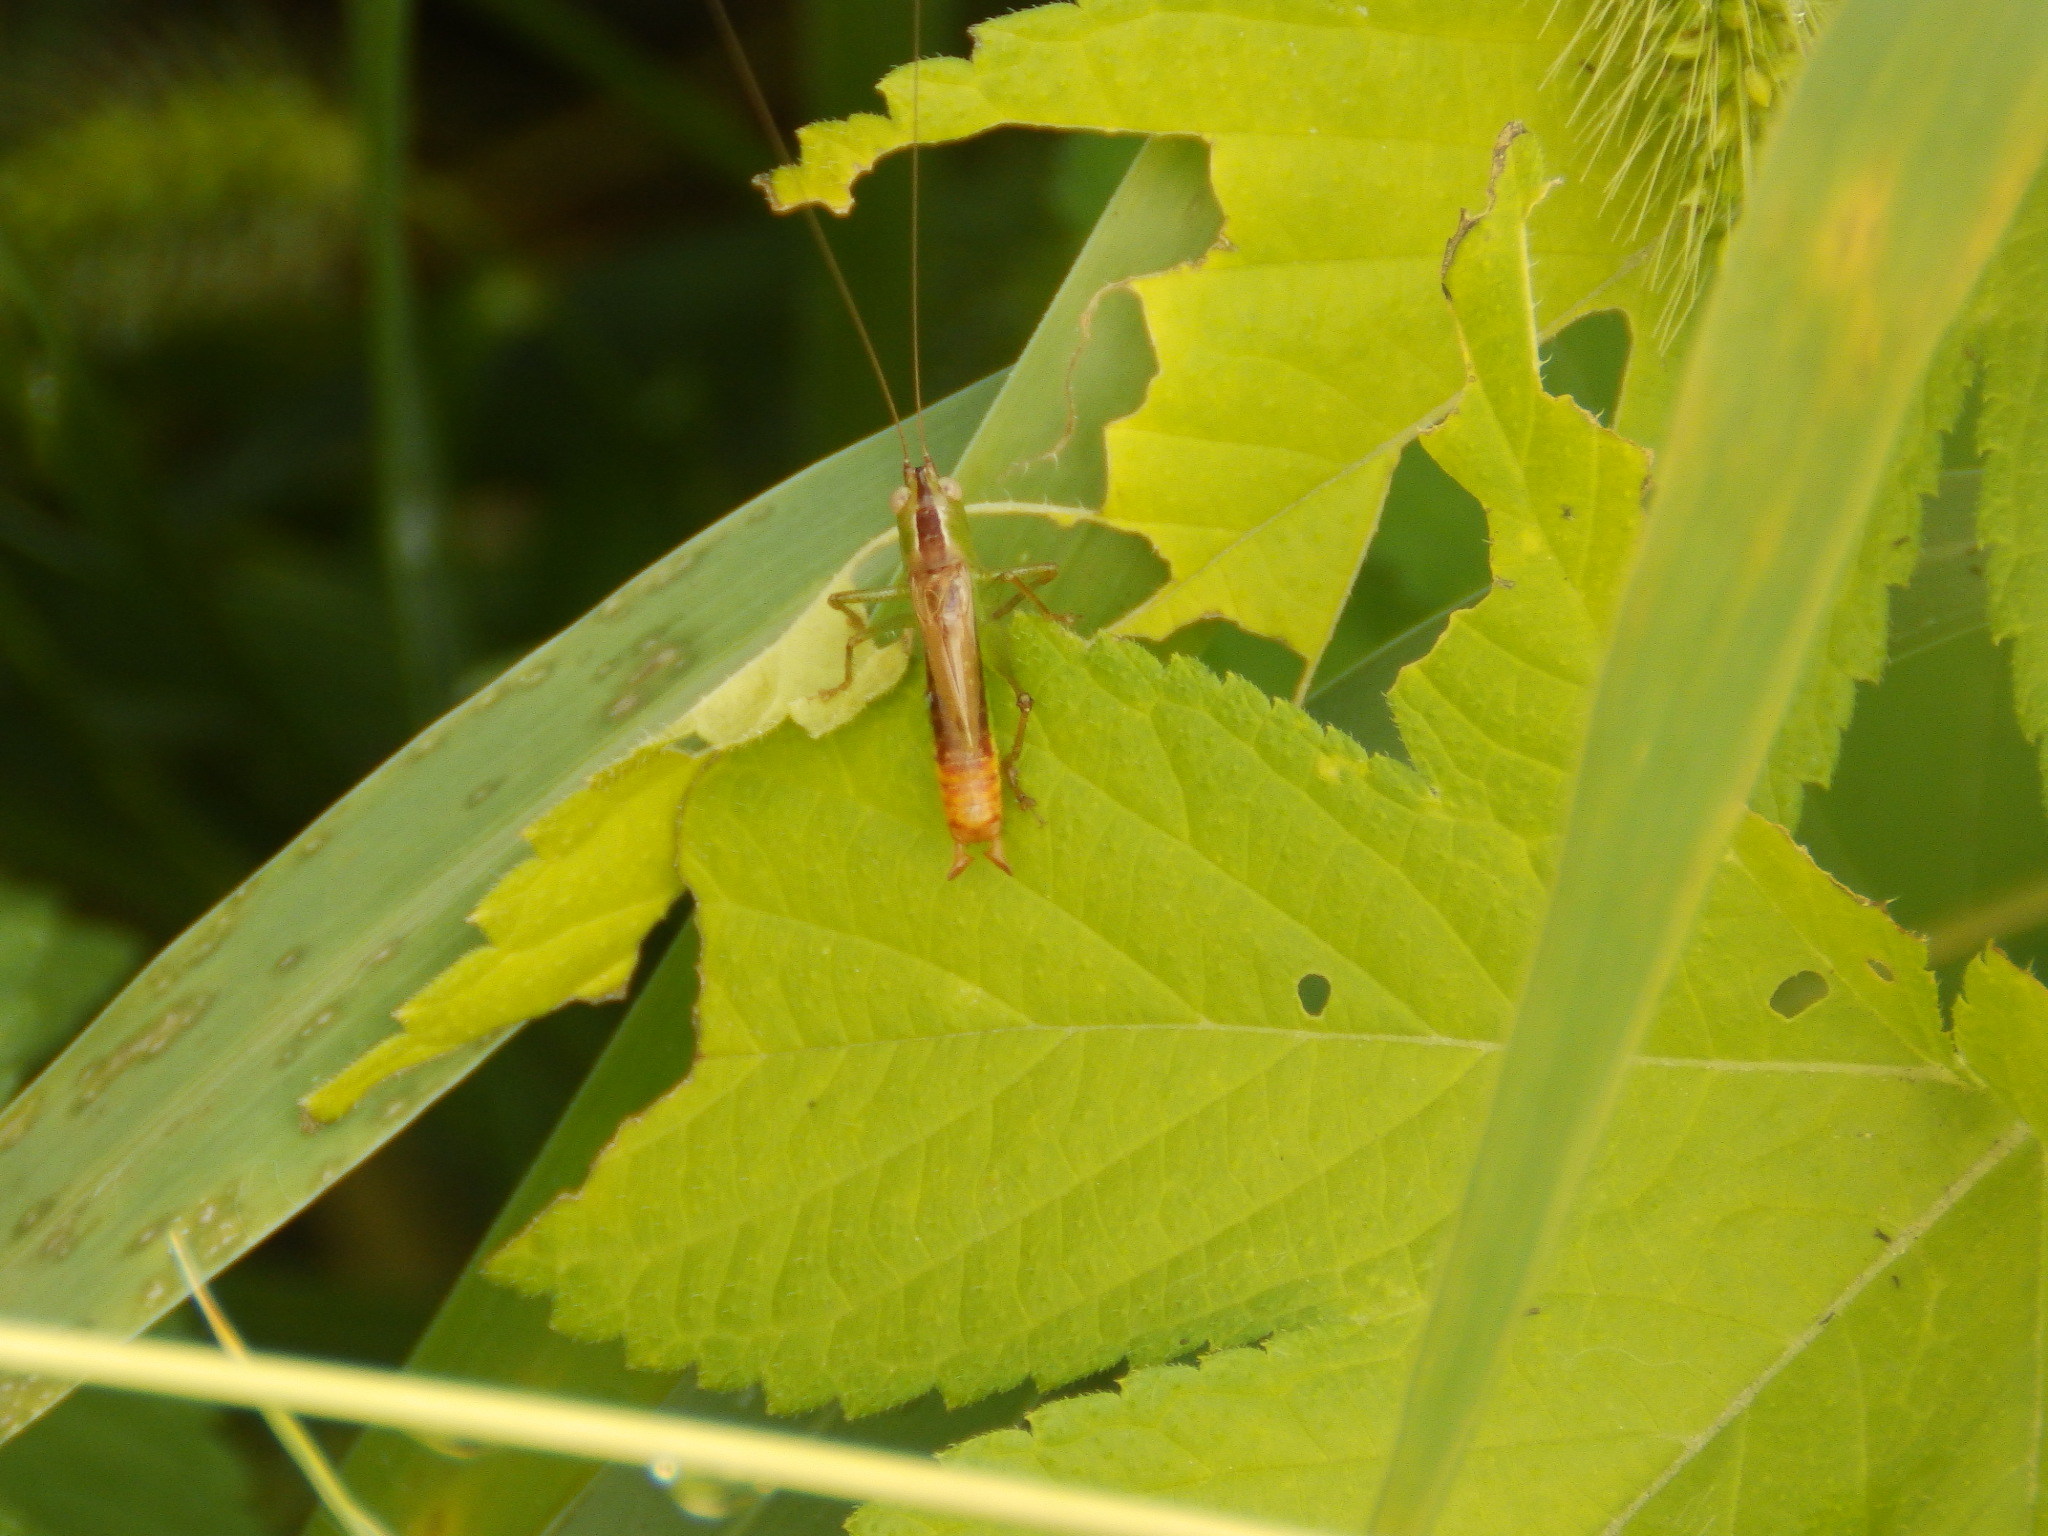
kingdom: Animalia
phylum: Arthropoda
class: Insecta
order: Orthoptera
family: Tettigoniidae
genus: Conocephalus
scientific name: Conocephalus brevipennis
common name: Short-winged meadow katydid
